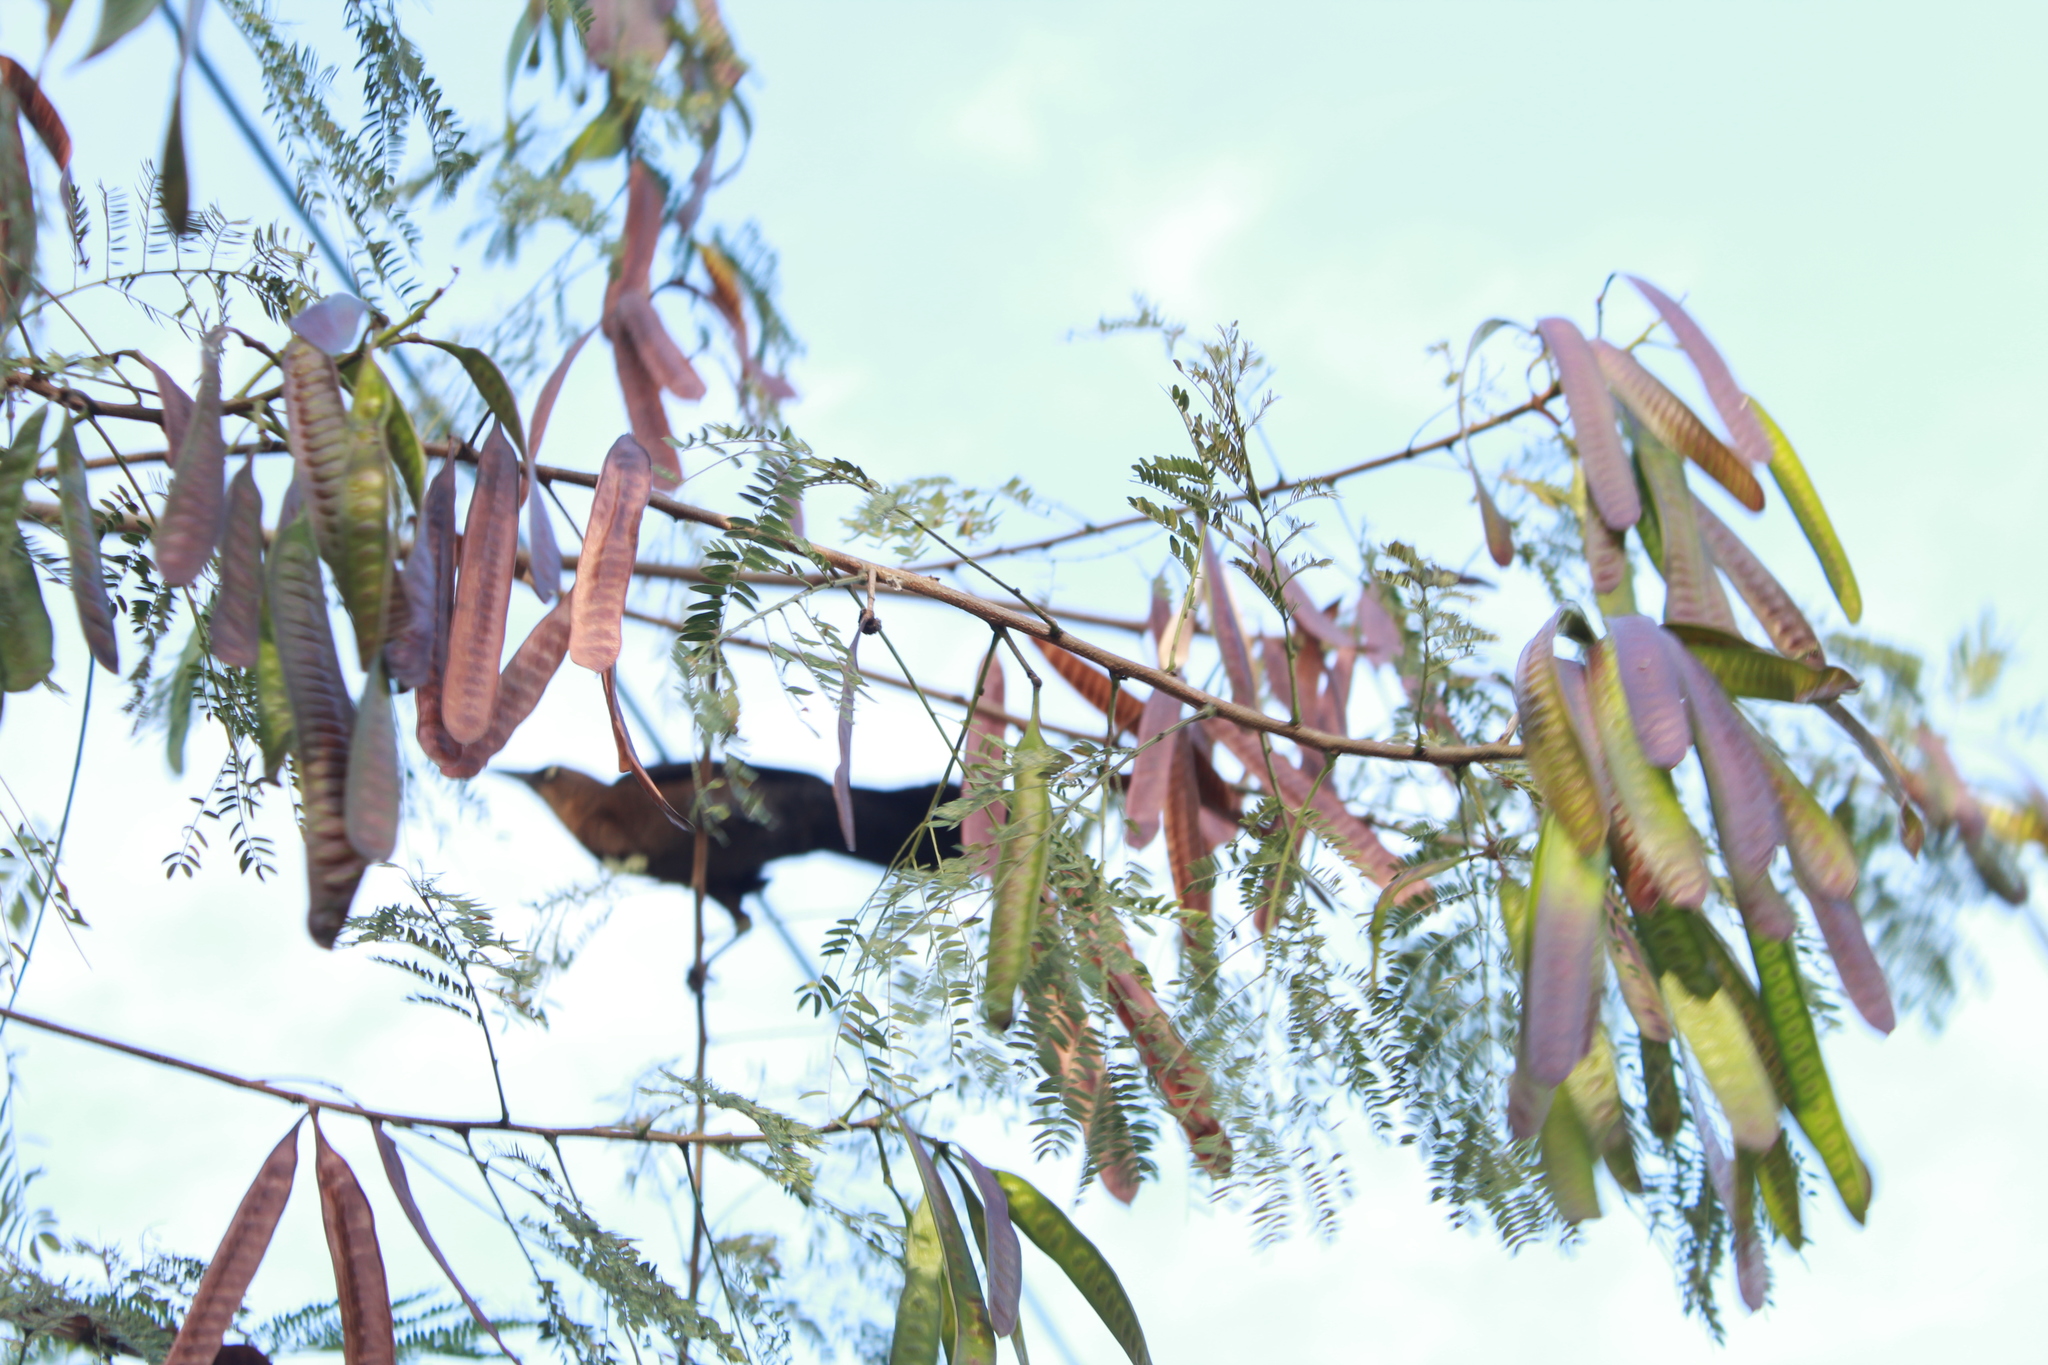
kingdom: Plantae
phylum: Tracheophyta
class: Magnoliopsida
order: Fabales
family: Fabaceae
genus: Leucaena
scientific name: Leucaena leucocephala
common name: White leadtree
